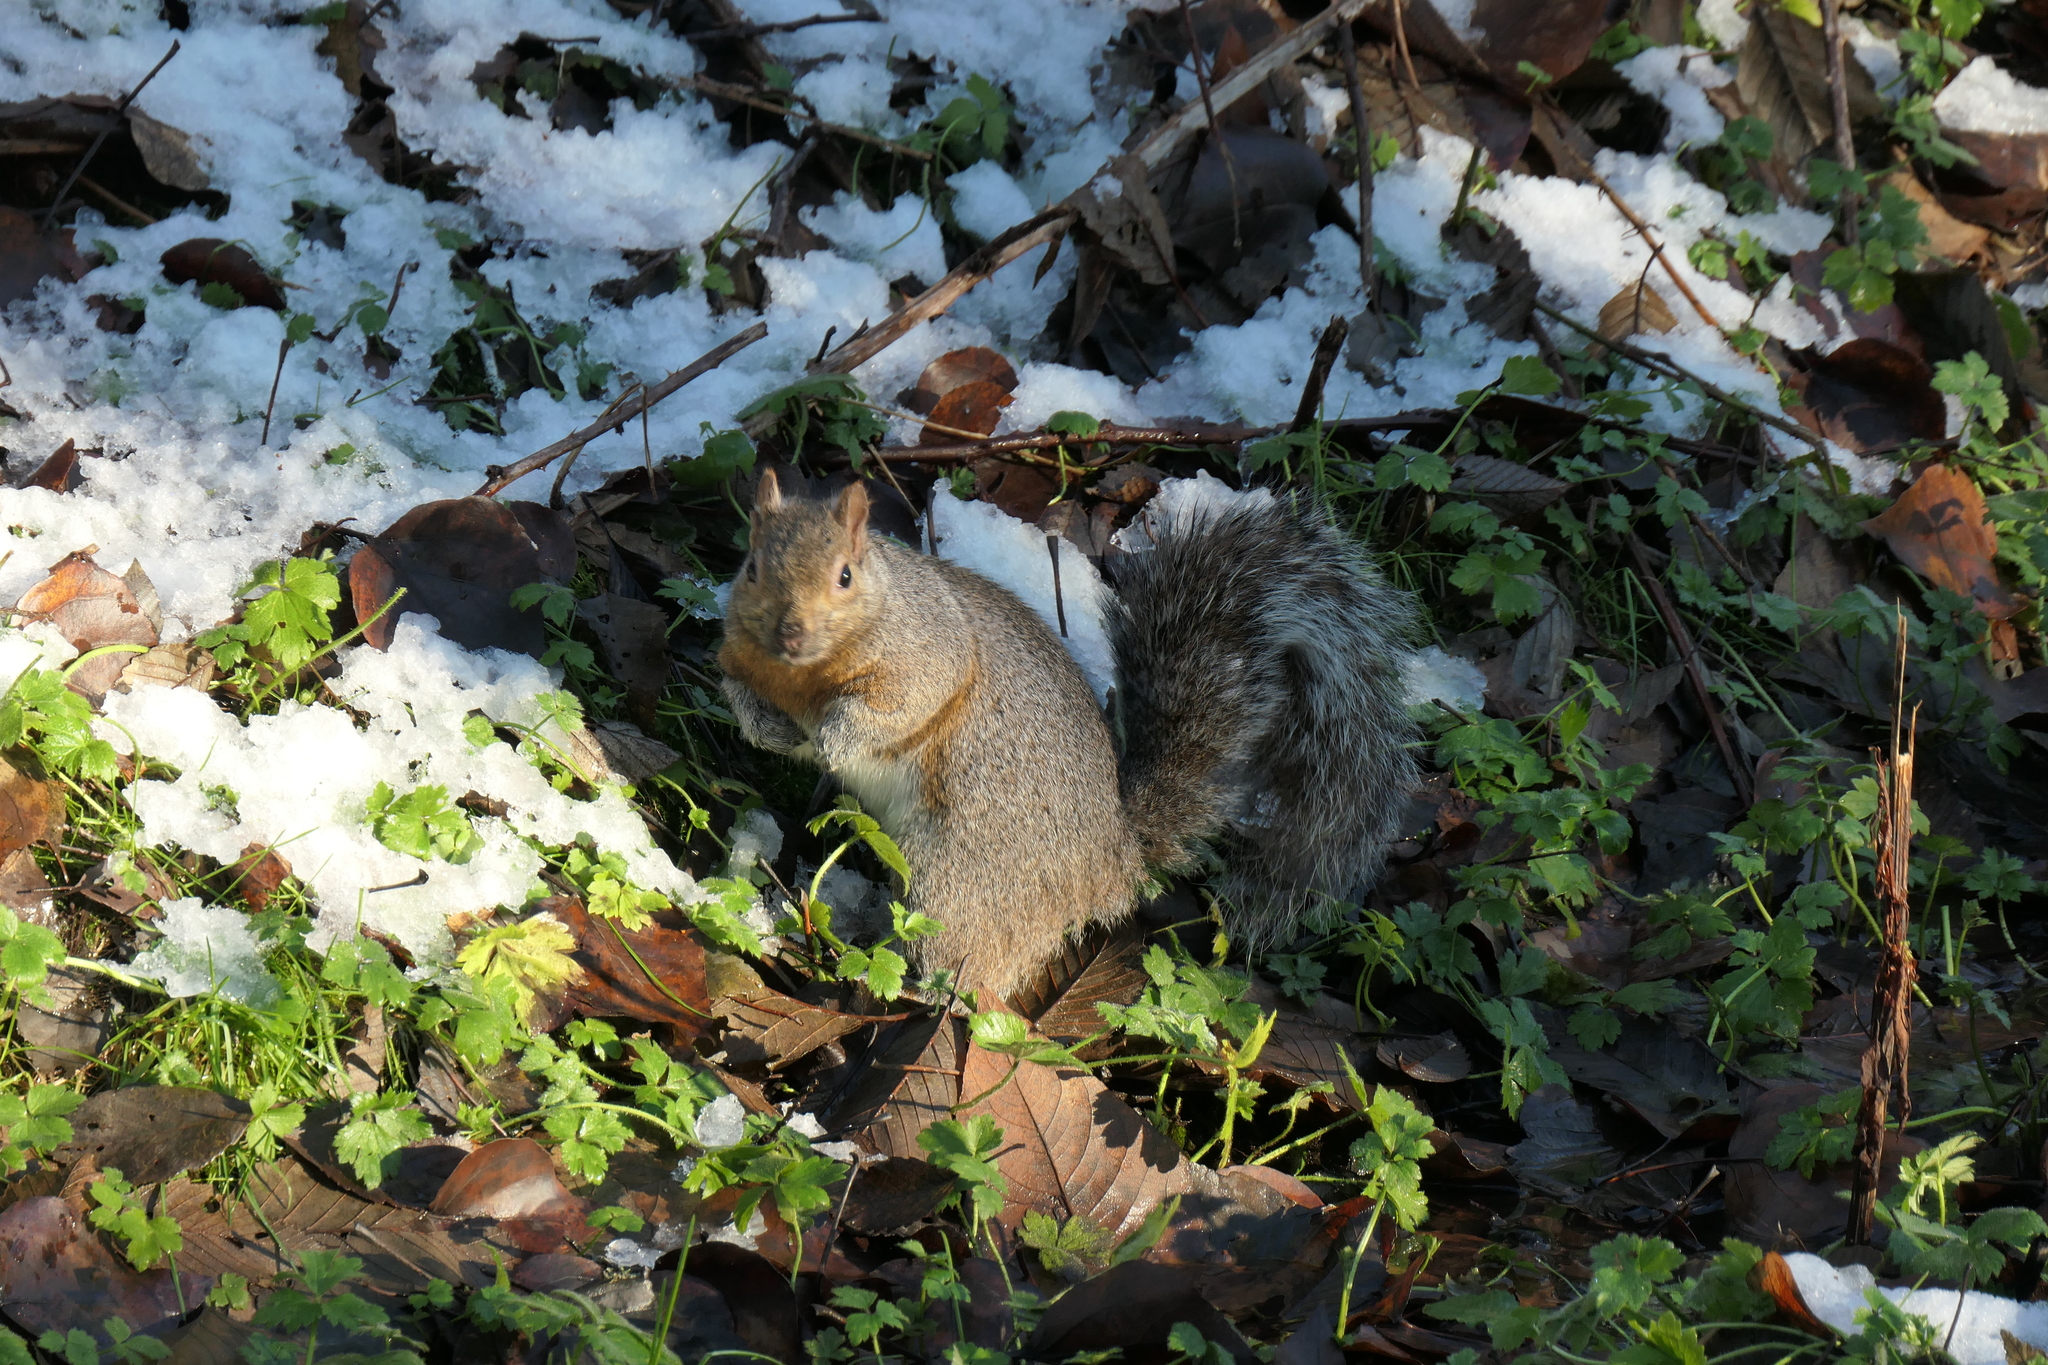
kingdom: Animalia
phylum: Chordata
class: Mammalia
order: Rodentia
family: Sciuridae
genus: Sciurus
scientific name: Sciurus carolinensis
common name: Eastern gray squirrel
